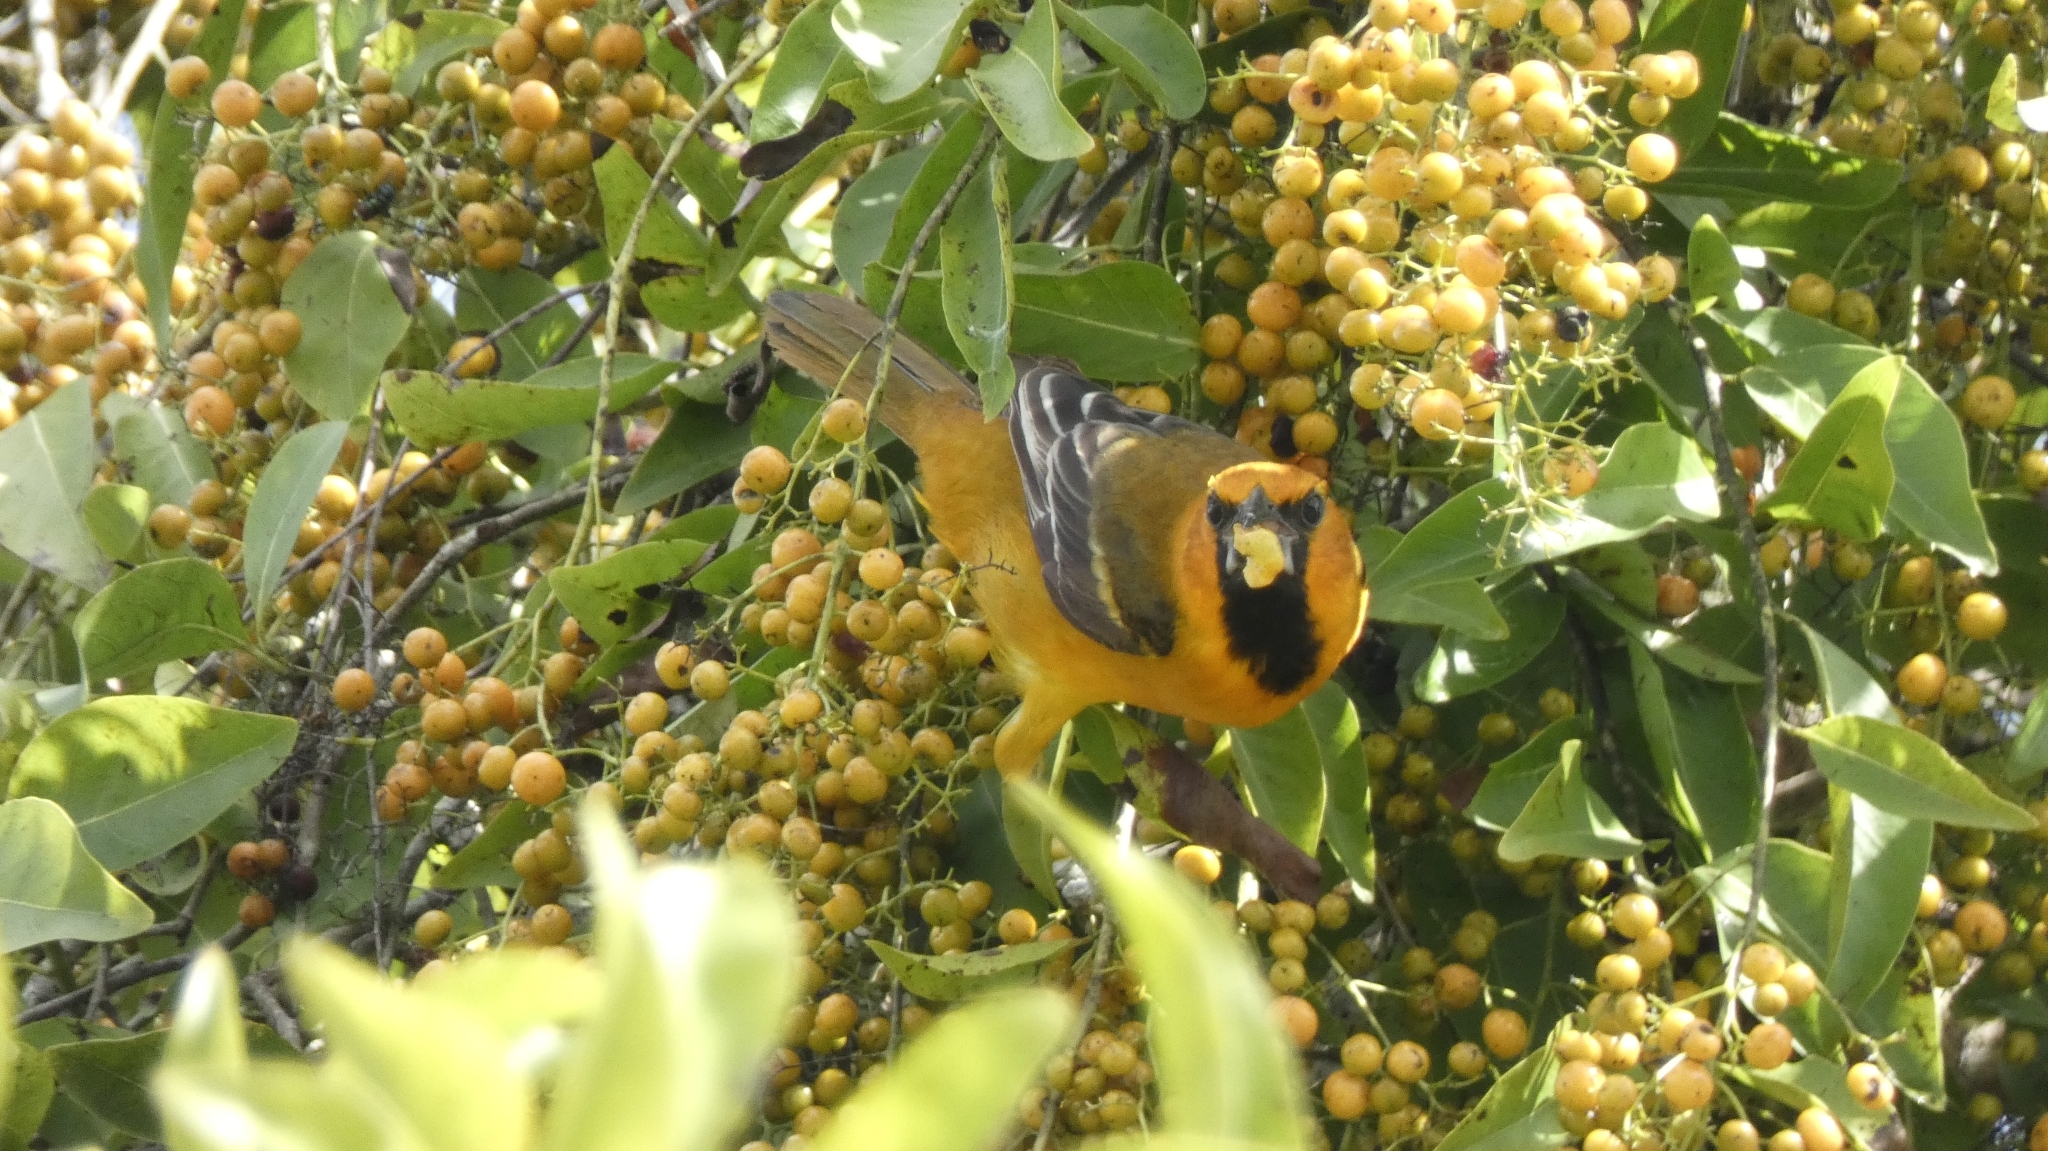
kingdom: Animalia
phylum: Chordata
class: Aves
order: Passeriformes
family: Icteridae
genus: Icterus
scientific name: Icterus auratus
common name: Orange oriole
